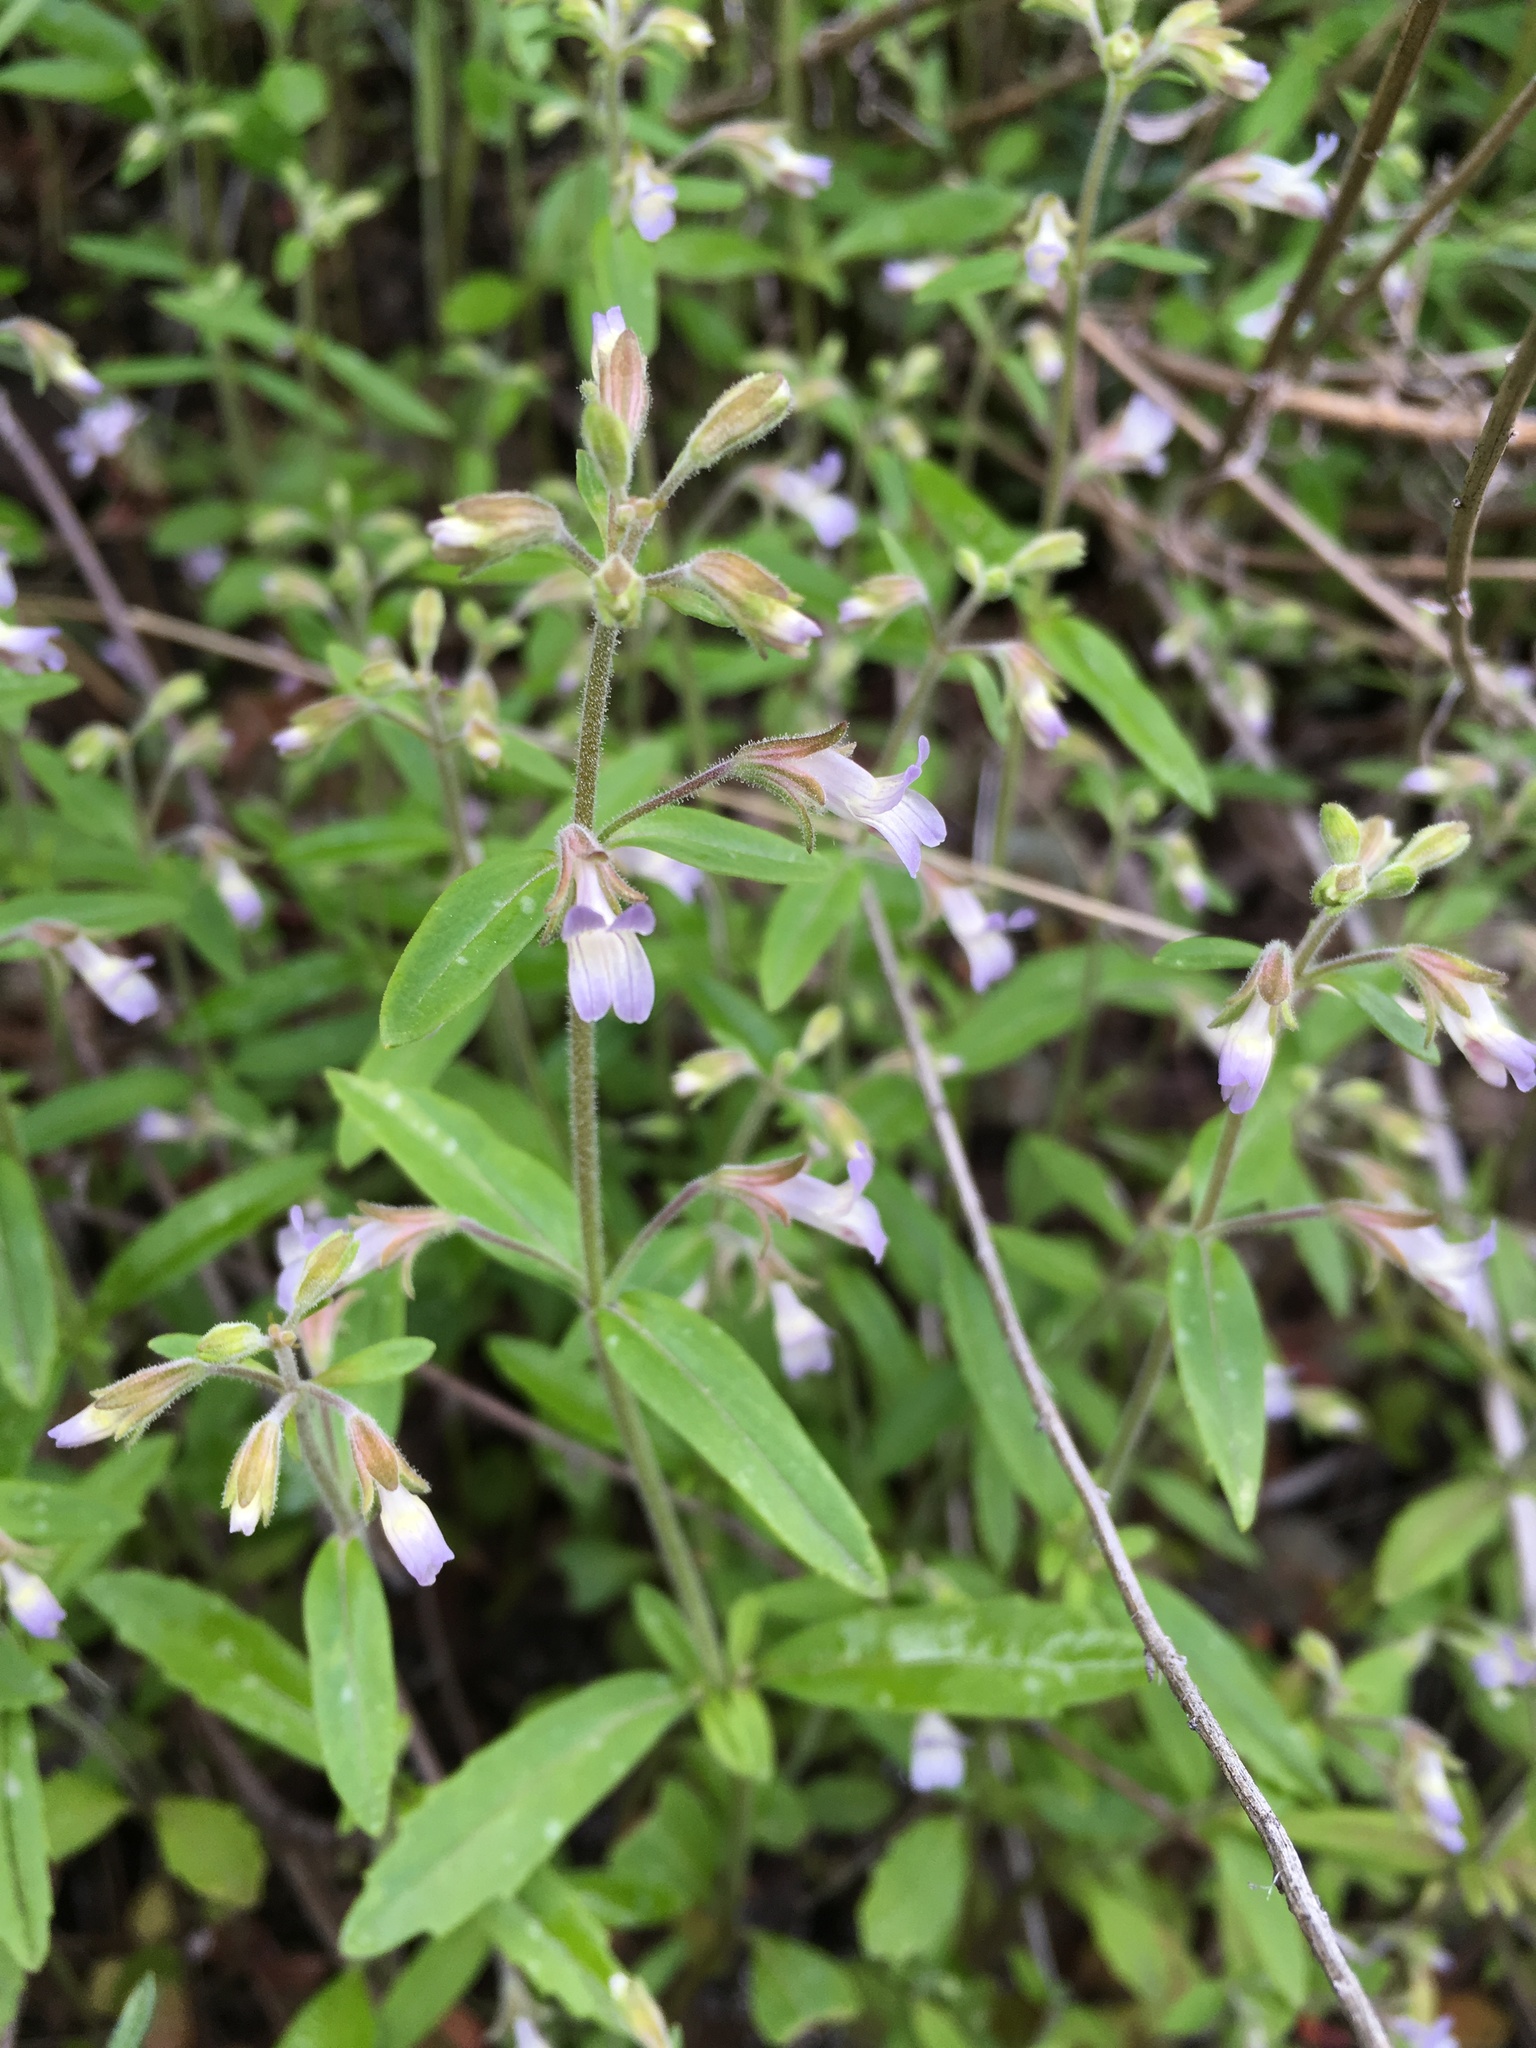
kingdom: Plantae
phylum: Tracheophyta
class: Magnoliopsida
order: Lamiales
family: Plantaginaceae
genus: Collinsia
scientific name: Collinsia childii
